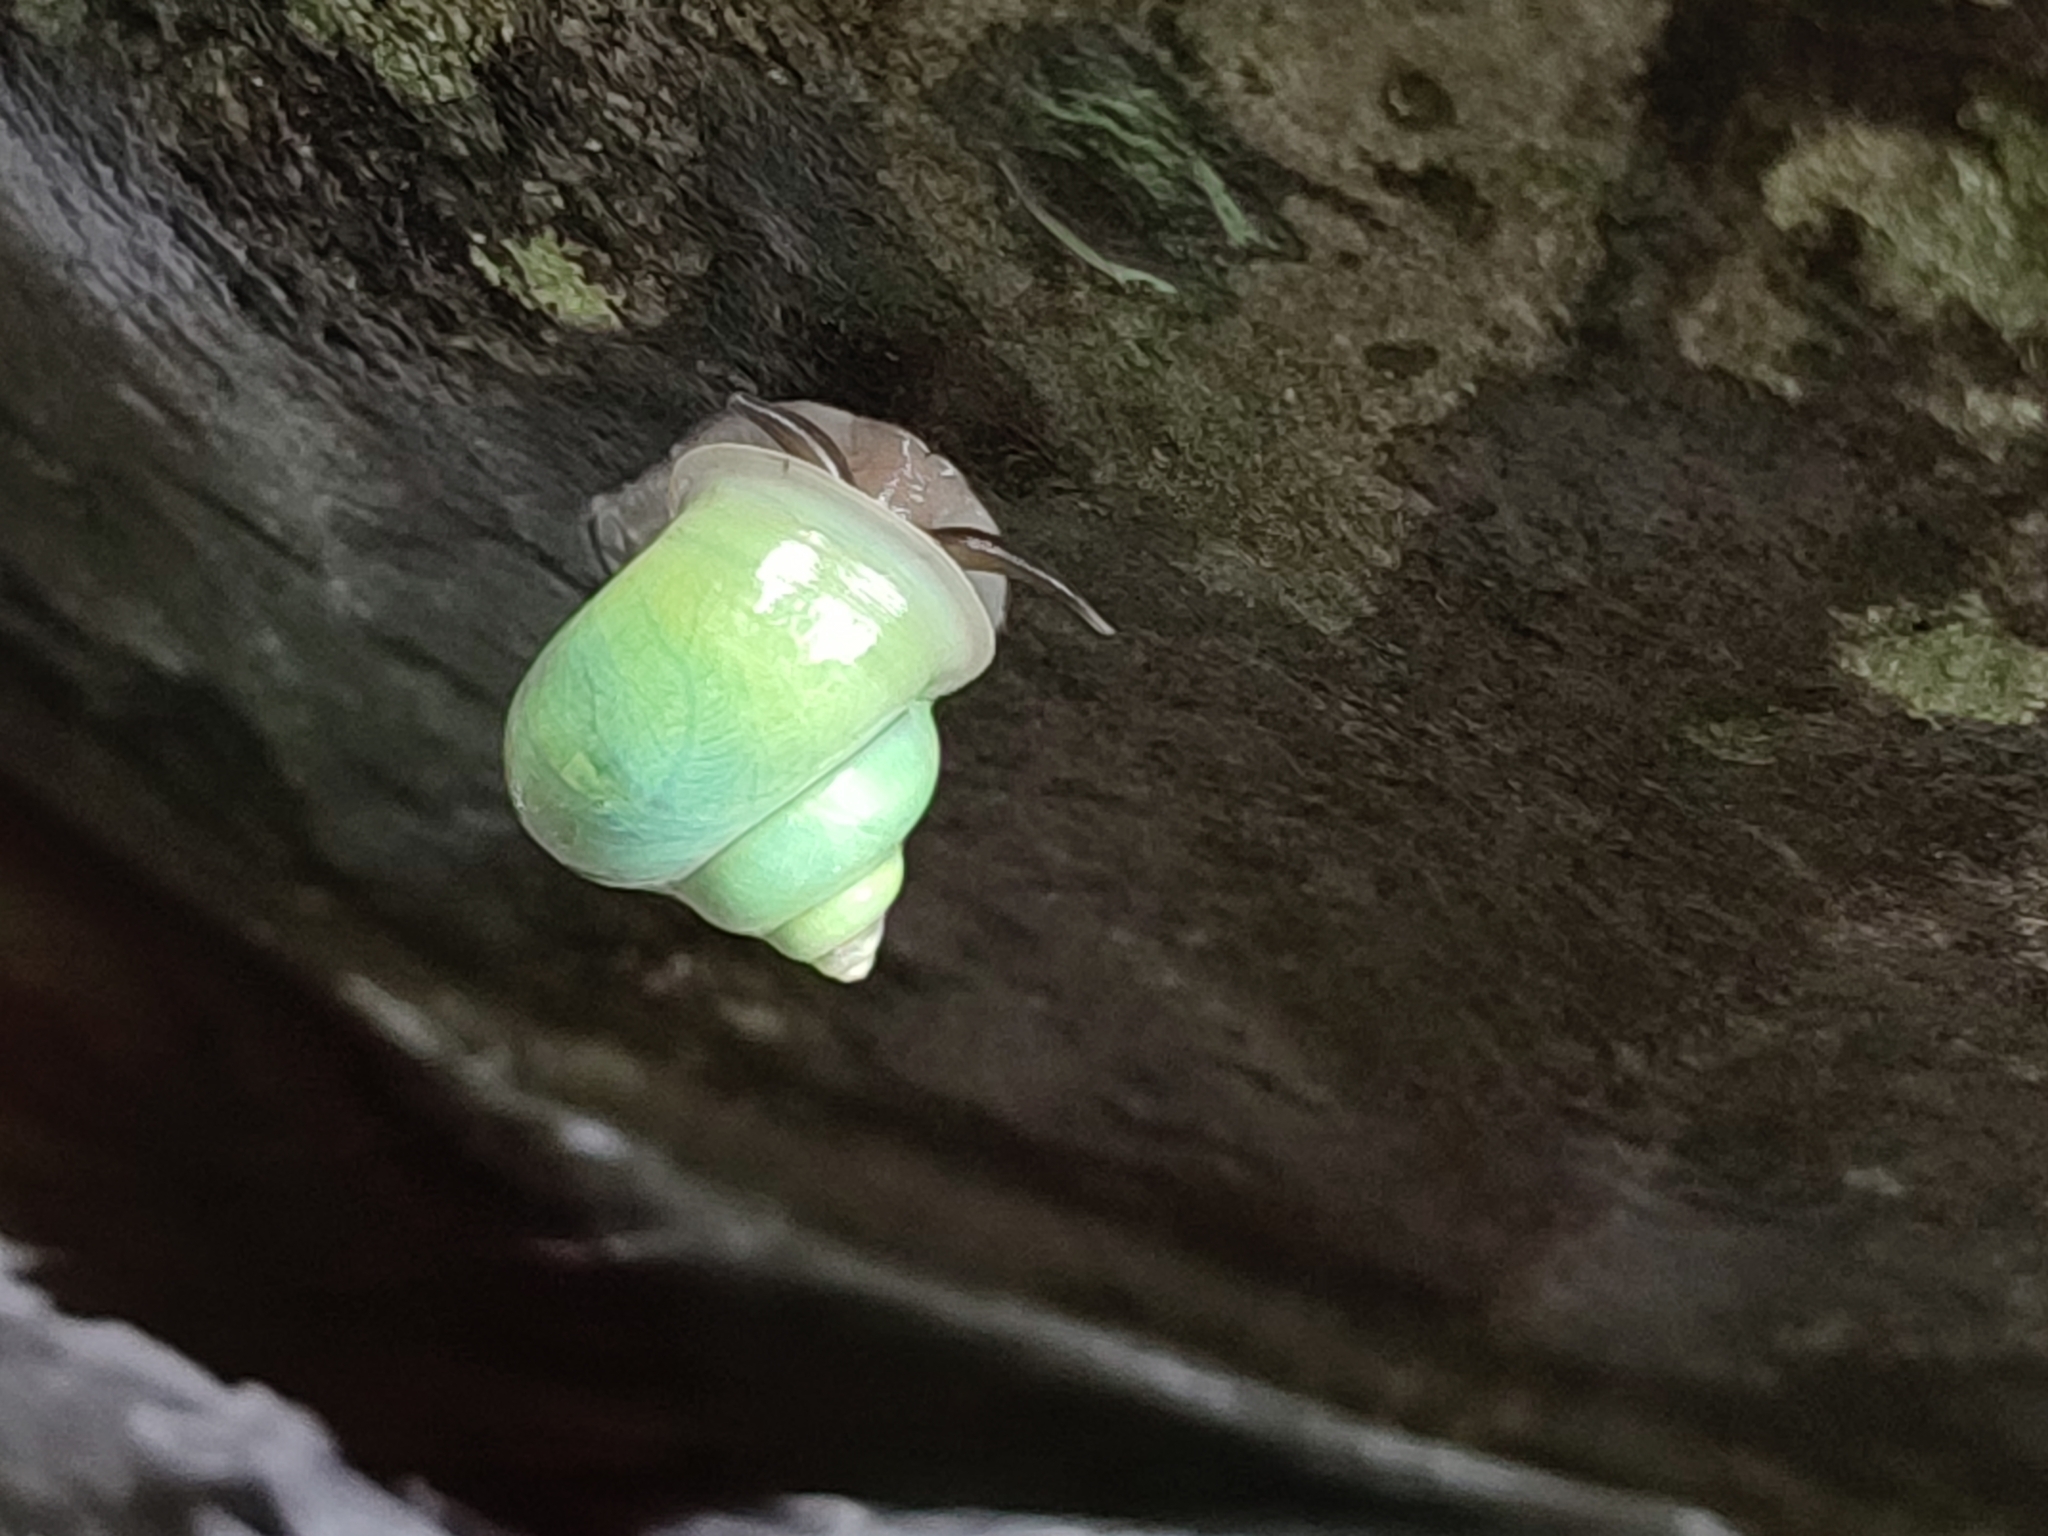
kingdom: Animalia
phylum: Mollusca
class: Gastropoda
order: Architaenioglossa
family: Cyclophoridae
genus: Leptopoma
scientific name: Leptopoma nitidum
